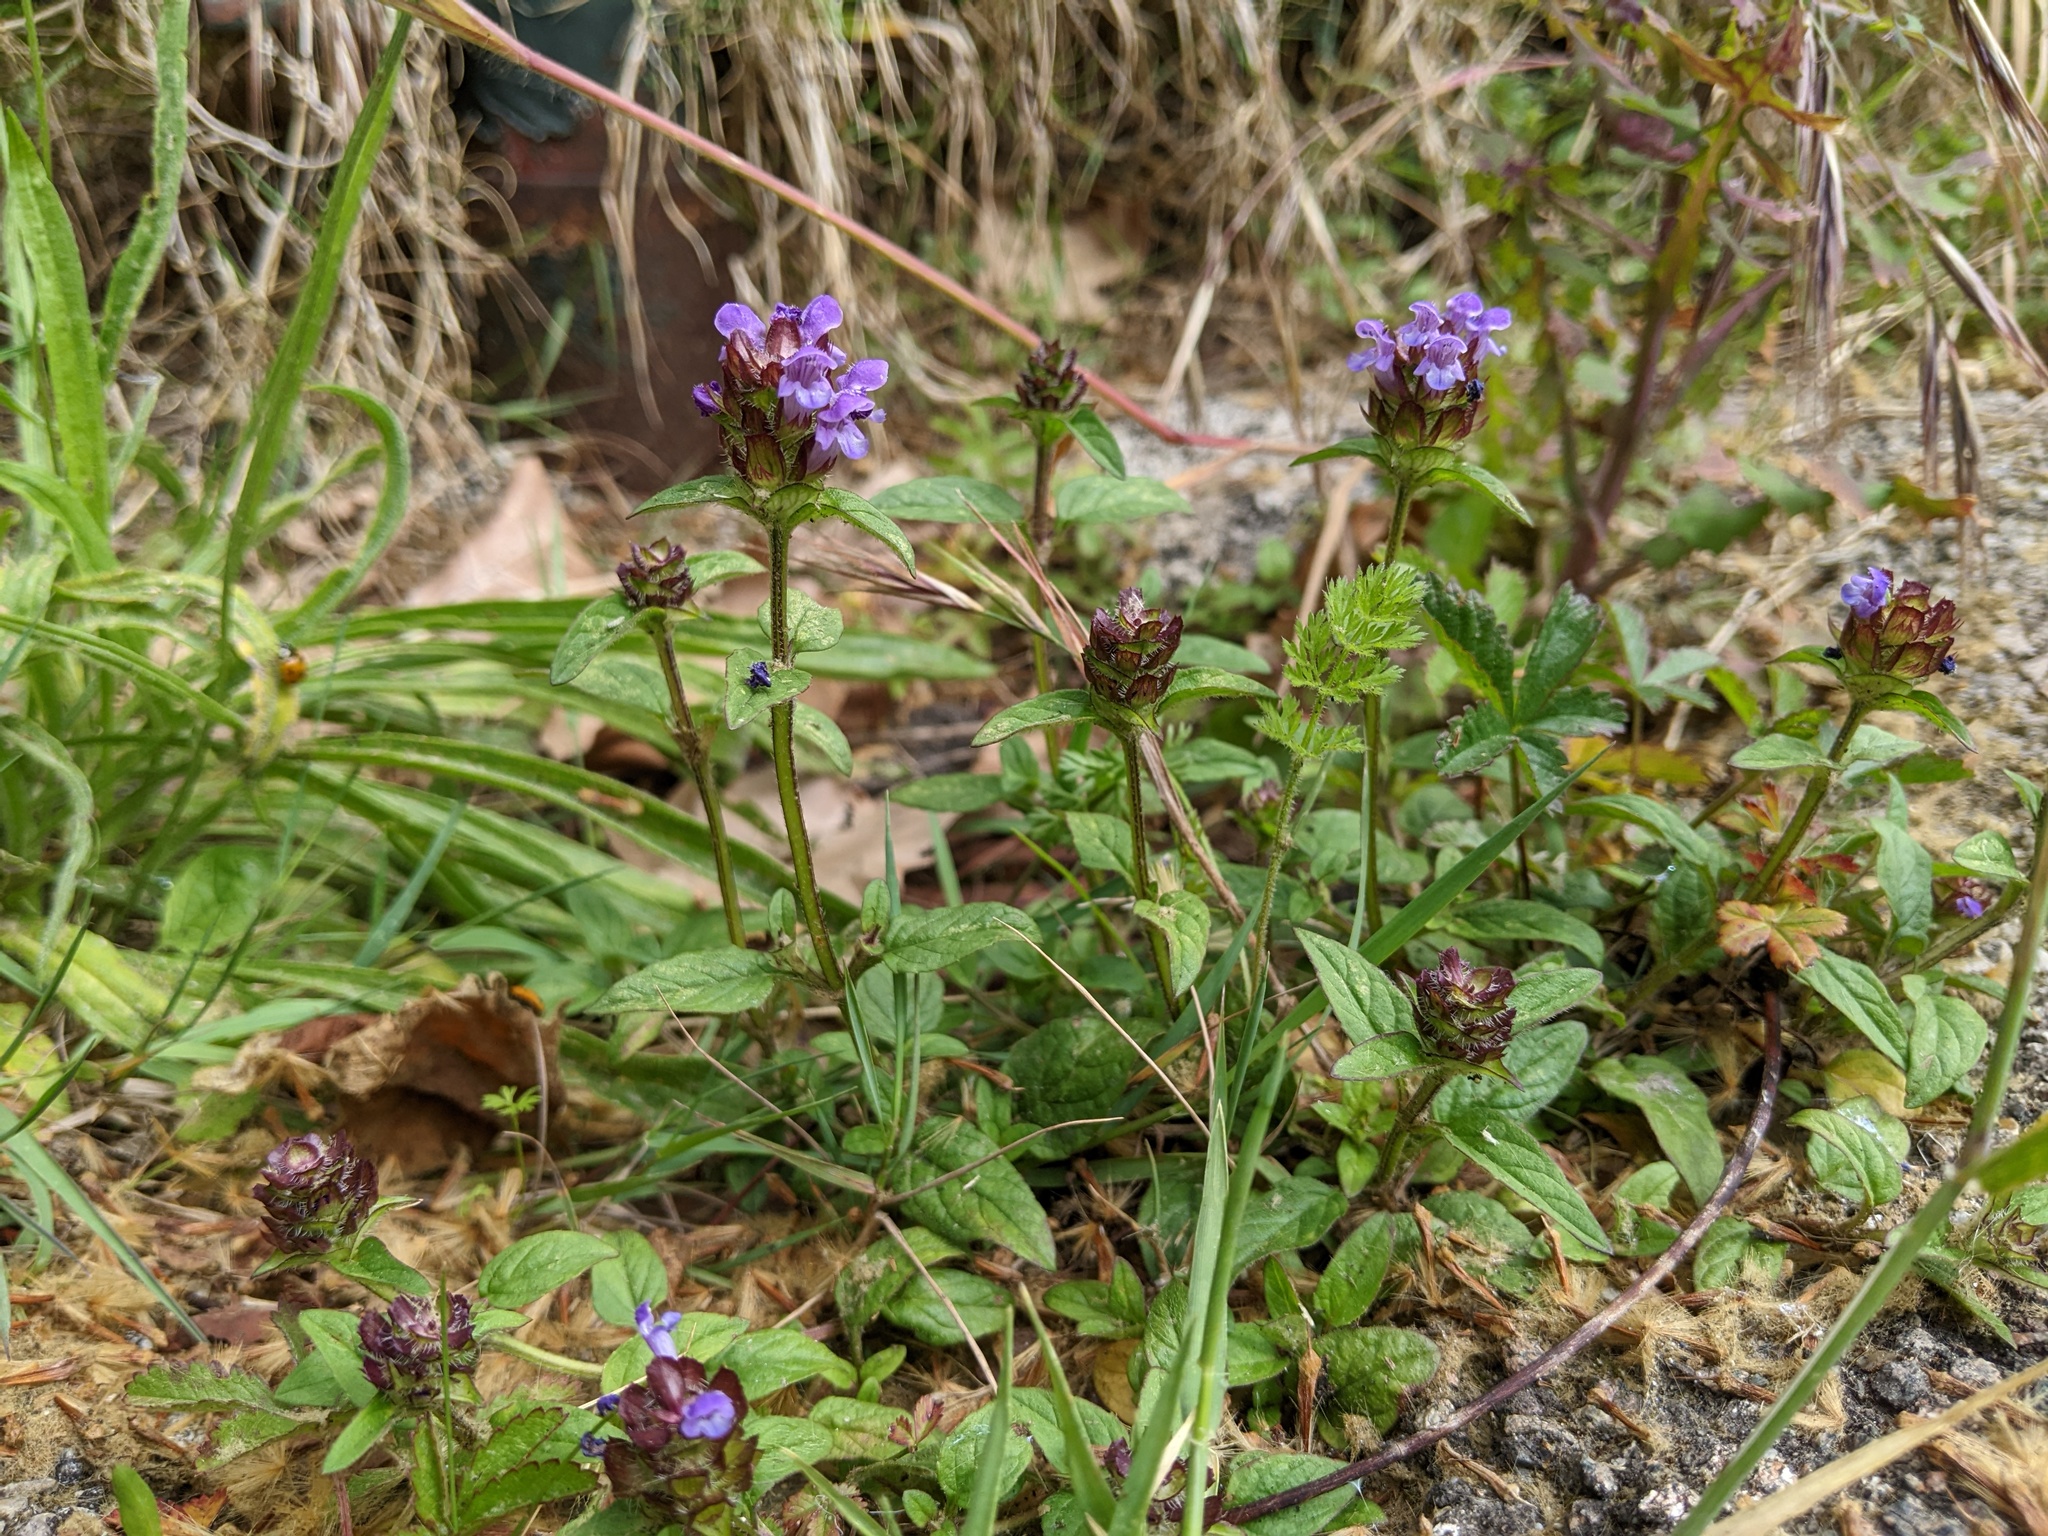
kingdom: Plantae
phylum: Tracheophyta
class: Magnoliopsida
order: Lamiales
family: Lamiaceae
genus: Prunella
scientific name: Prunella vulgaris
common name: Heal-all
